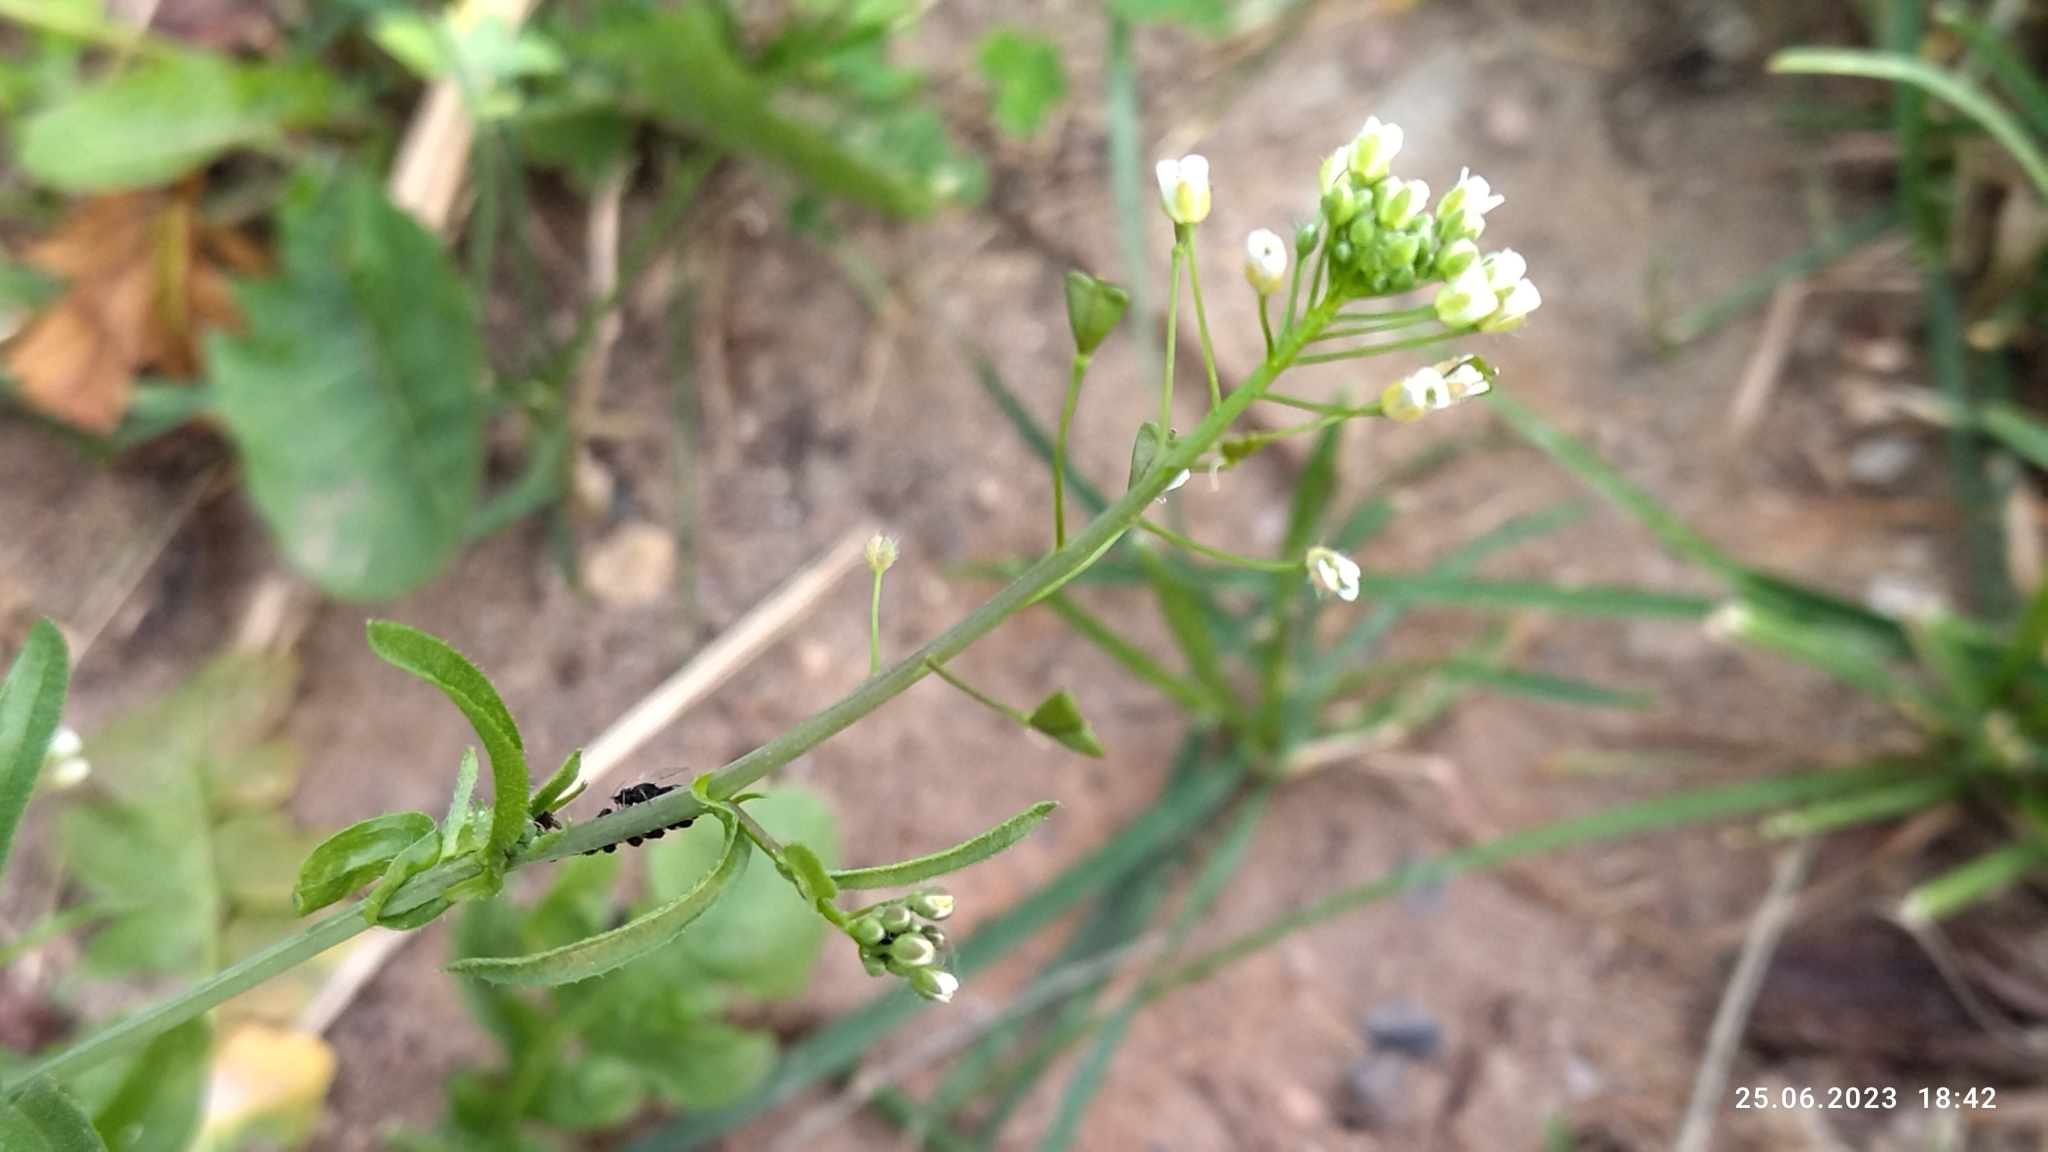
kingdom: Plantae
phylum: Tracheophyta
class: Magnoliopsida
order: Brassicales
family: Brassicaceae
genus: Capsella
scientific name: Capsella bursa-pastoris
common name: Shepherd's purse
